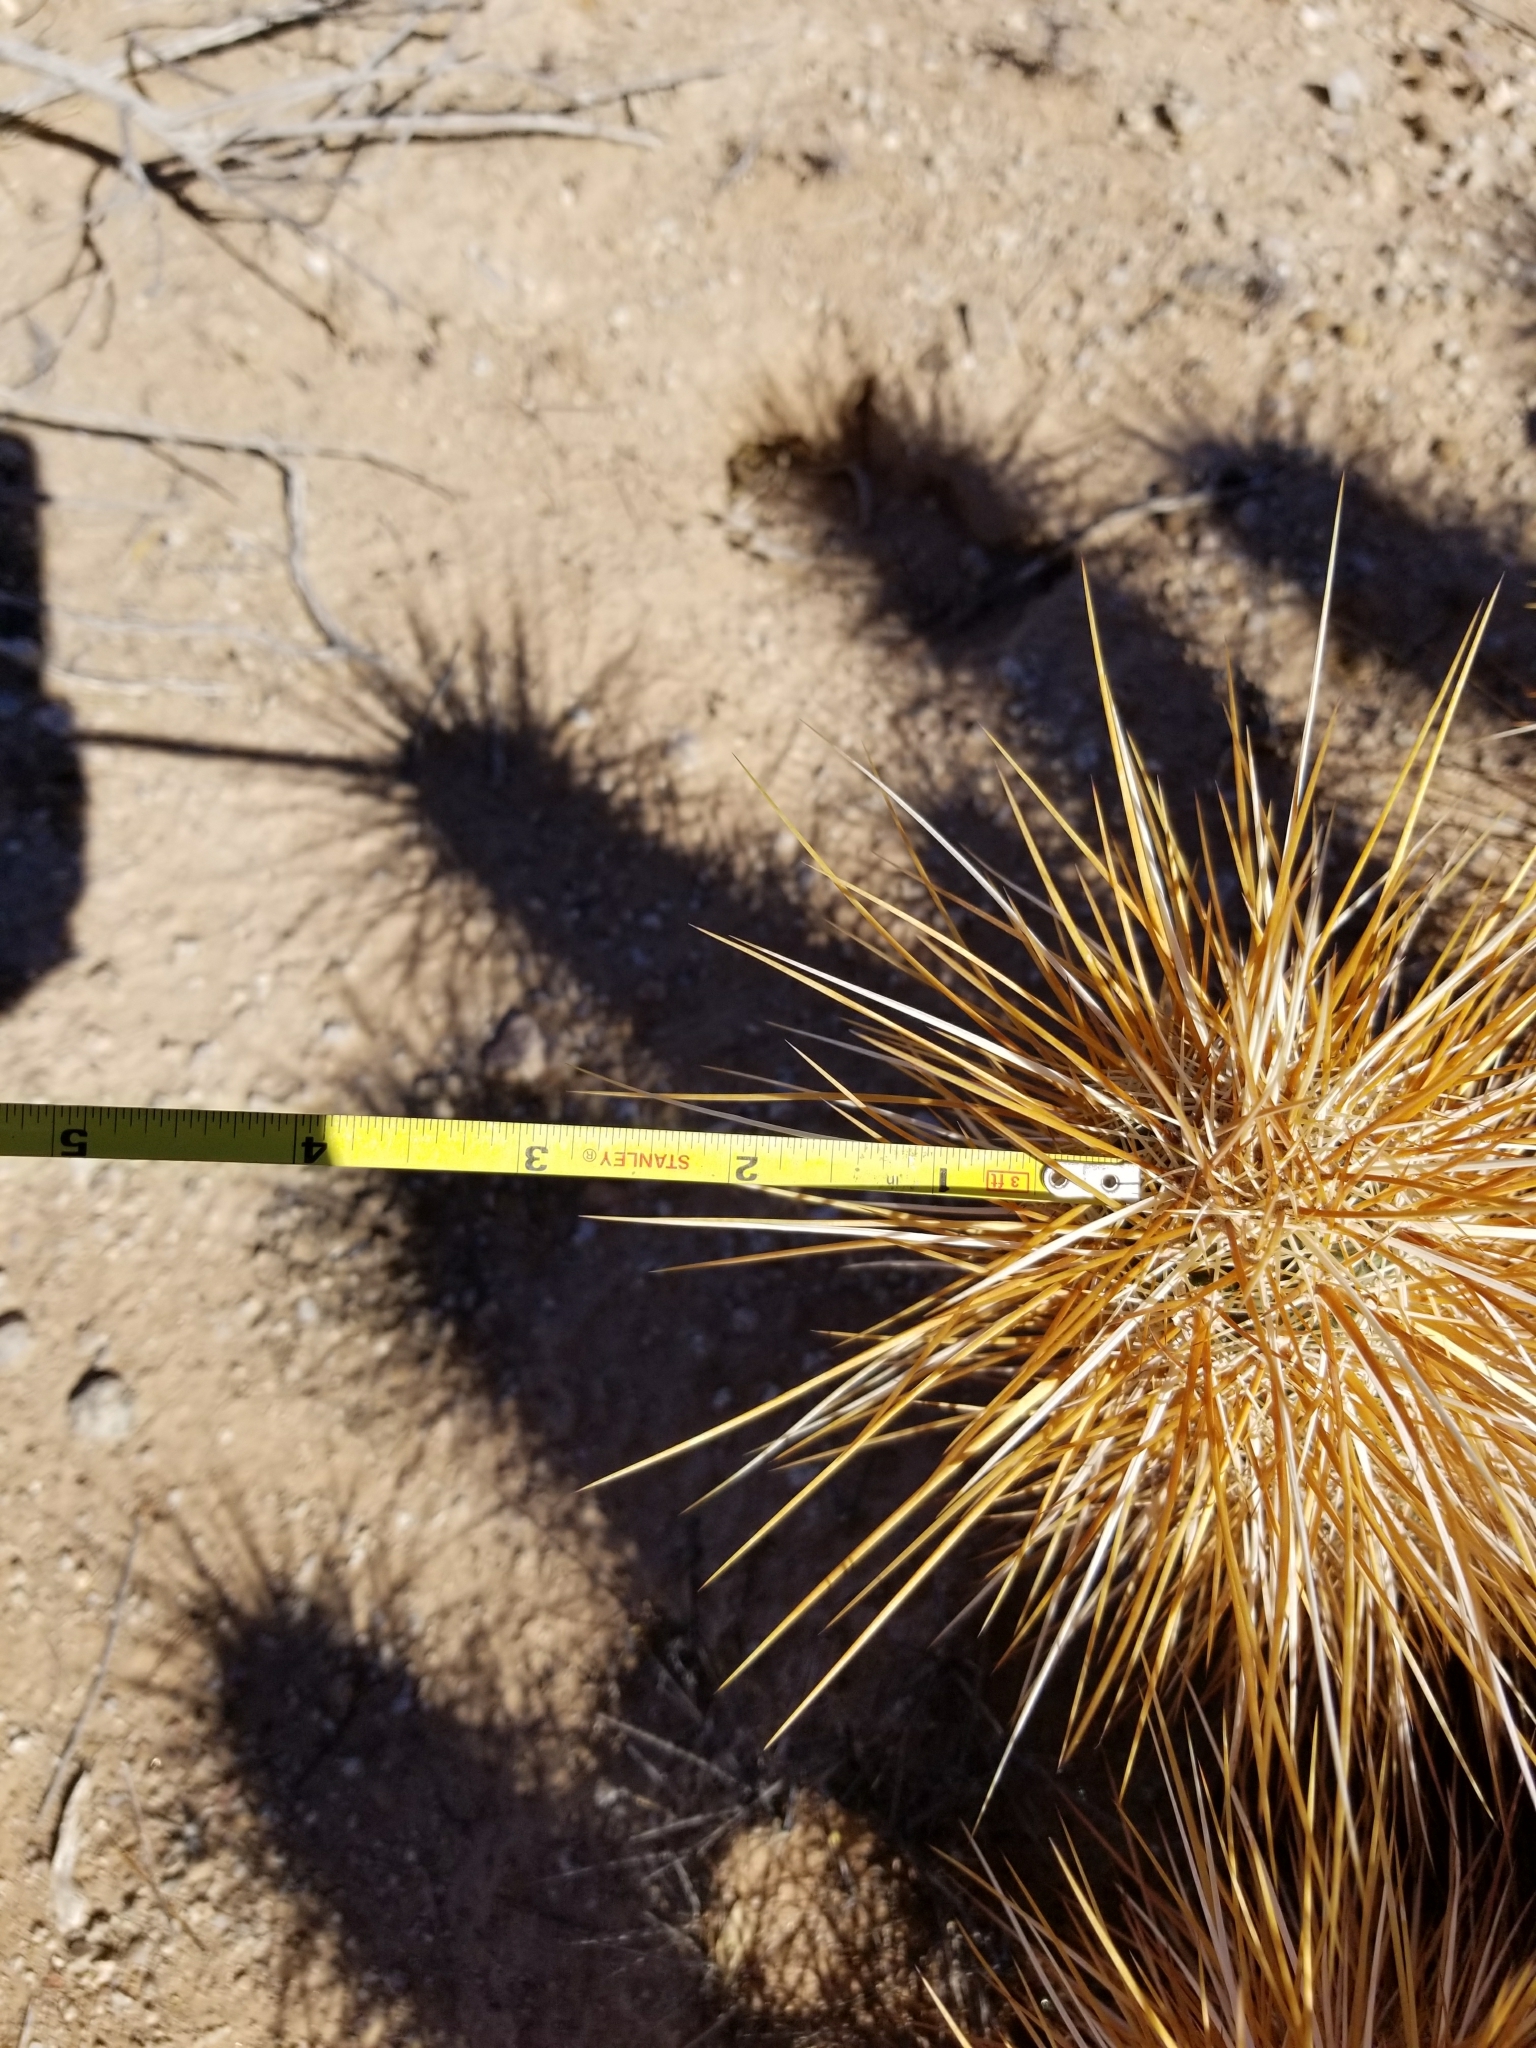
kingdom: Plantae
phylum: Tracheophyta
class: Magnoliopsida
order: Caryophyllales
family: Cactaceae
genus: Echinocereus
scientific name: Echinocereus engelmannii
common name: Engelmann's hedgehog cactus
